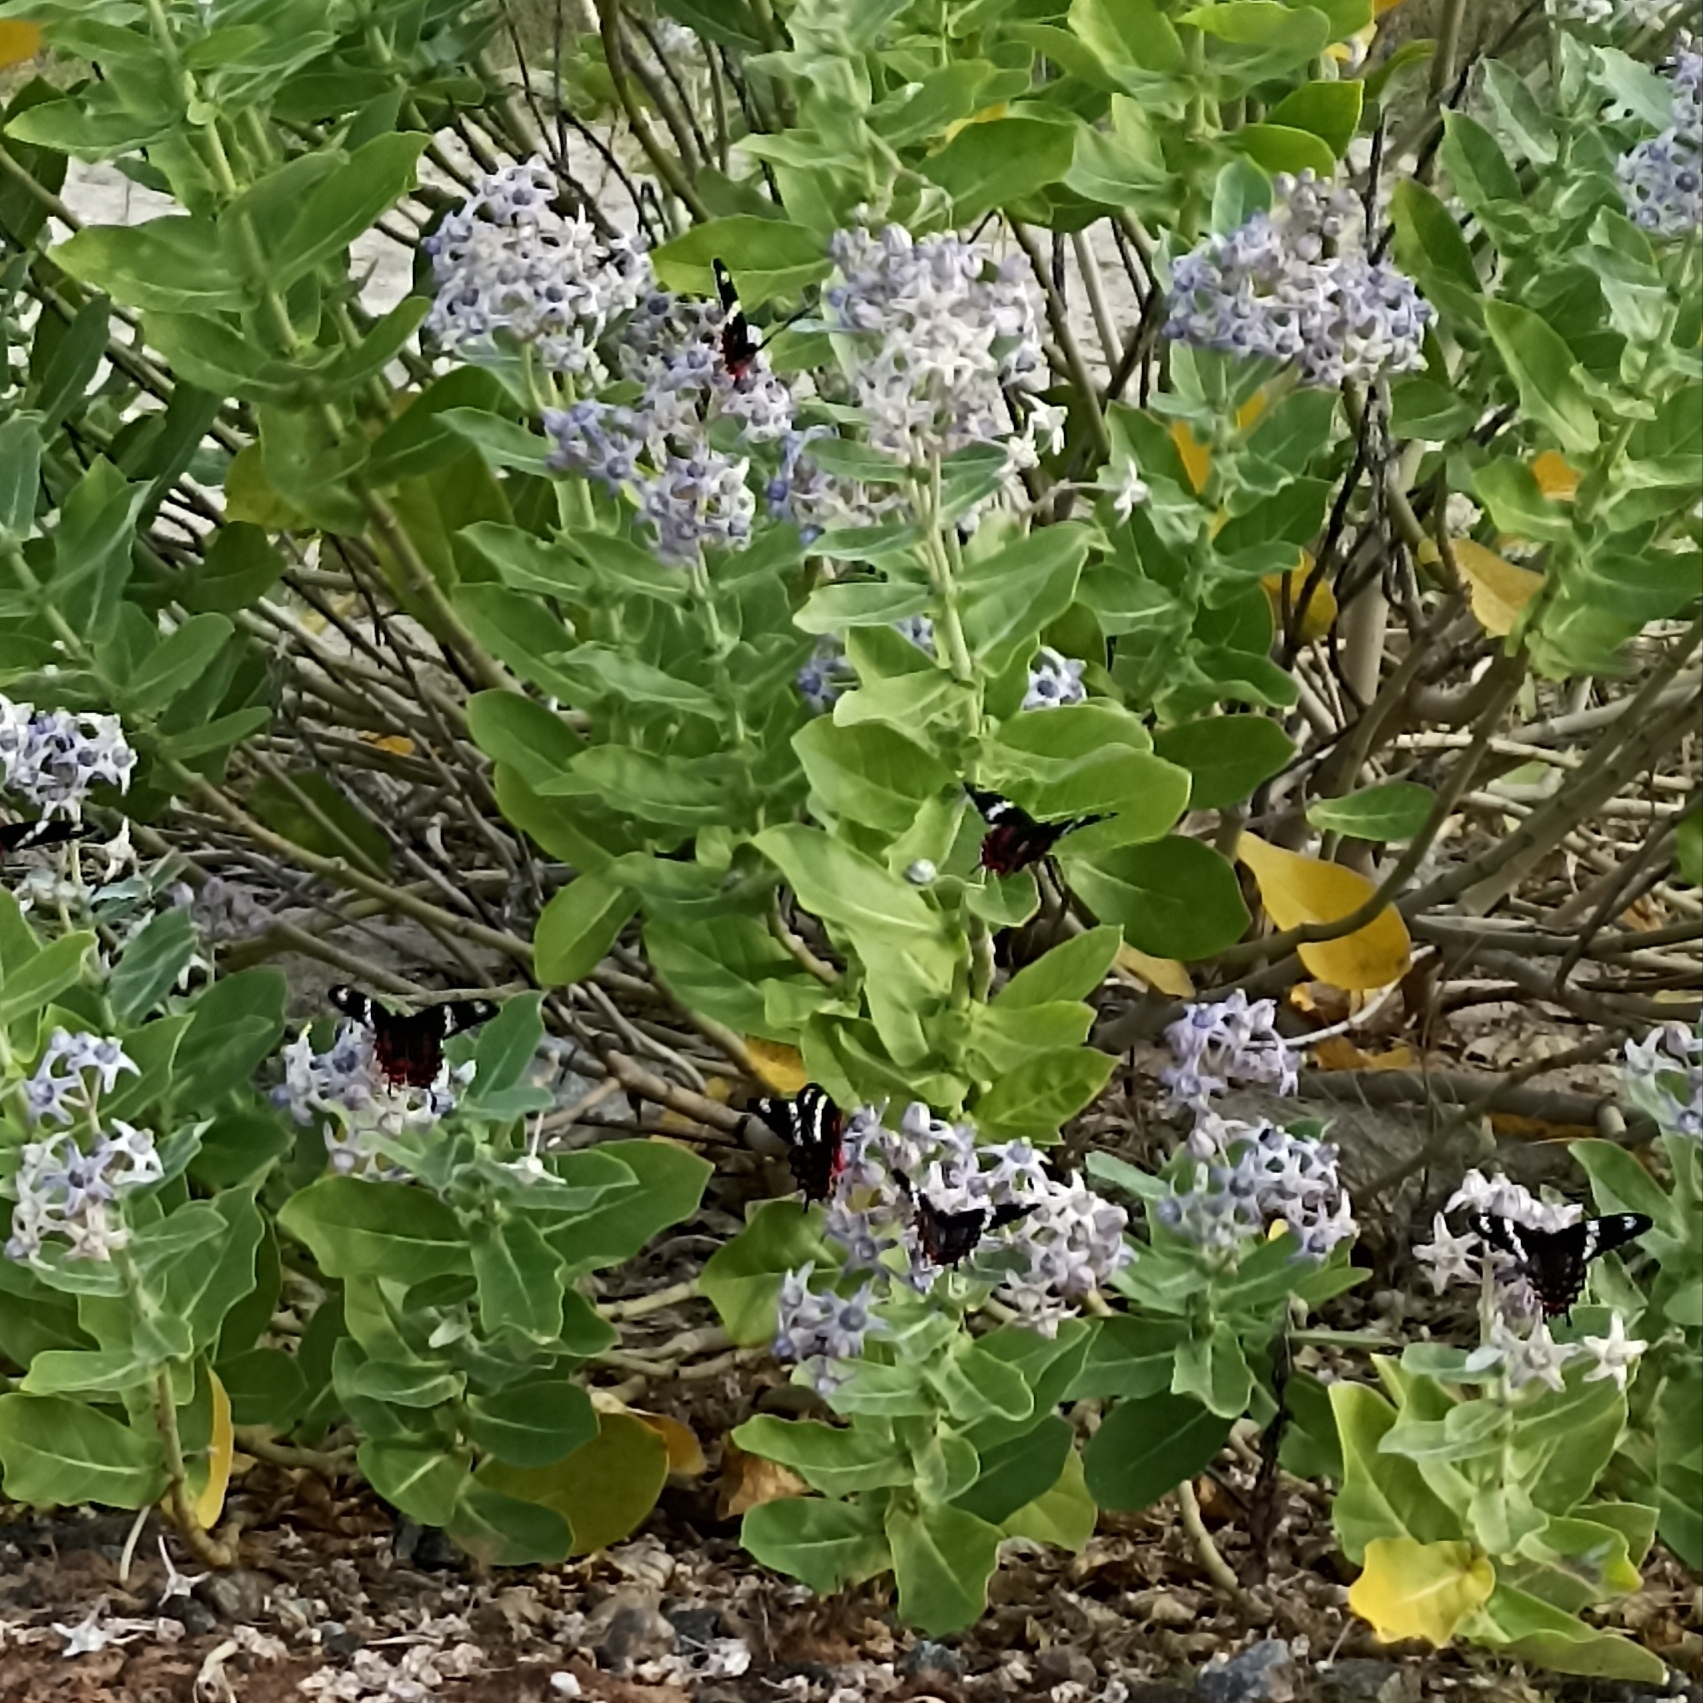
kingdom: Animalia
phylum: Arthropoda
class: Insecta
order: Lepidoptera
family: Papilionidae
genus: Pachliopta
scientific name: Pachliopta hector
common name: Crimson rose
